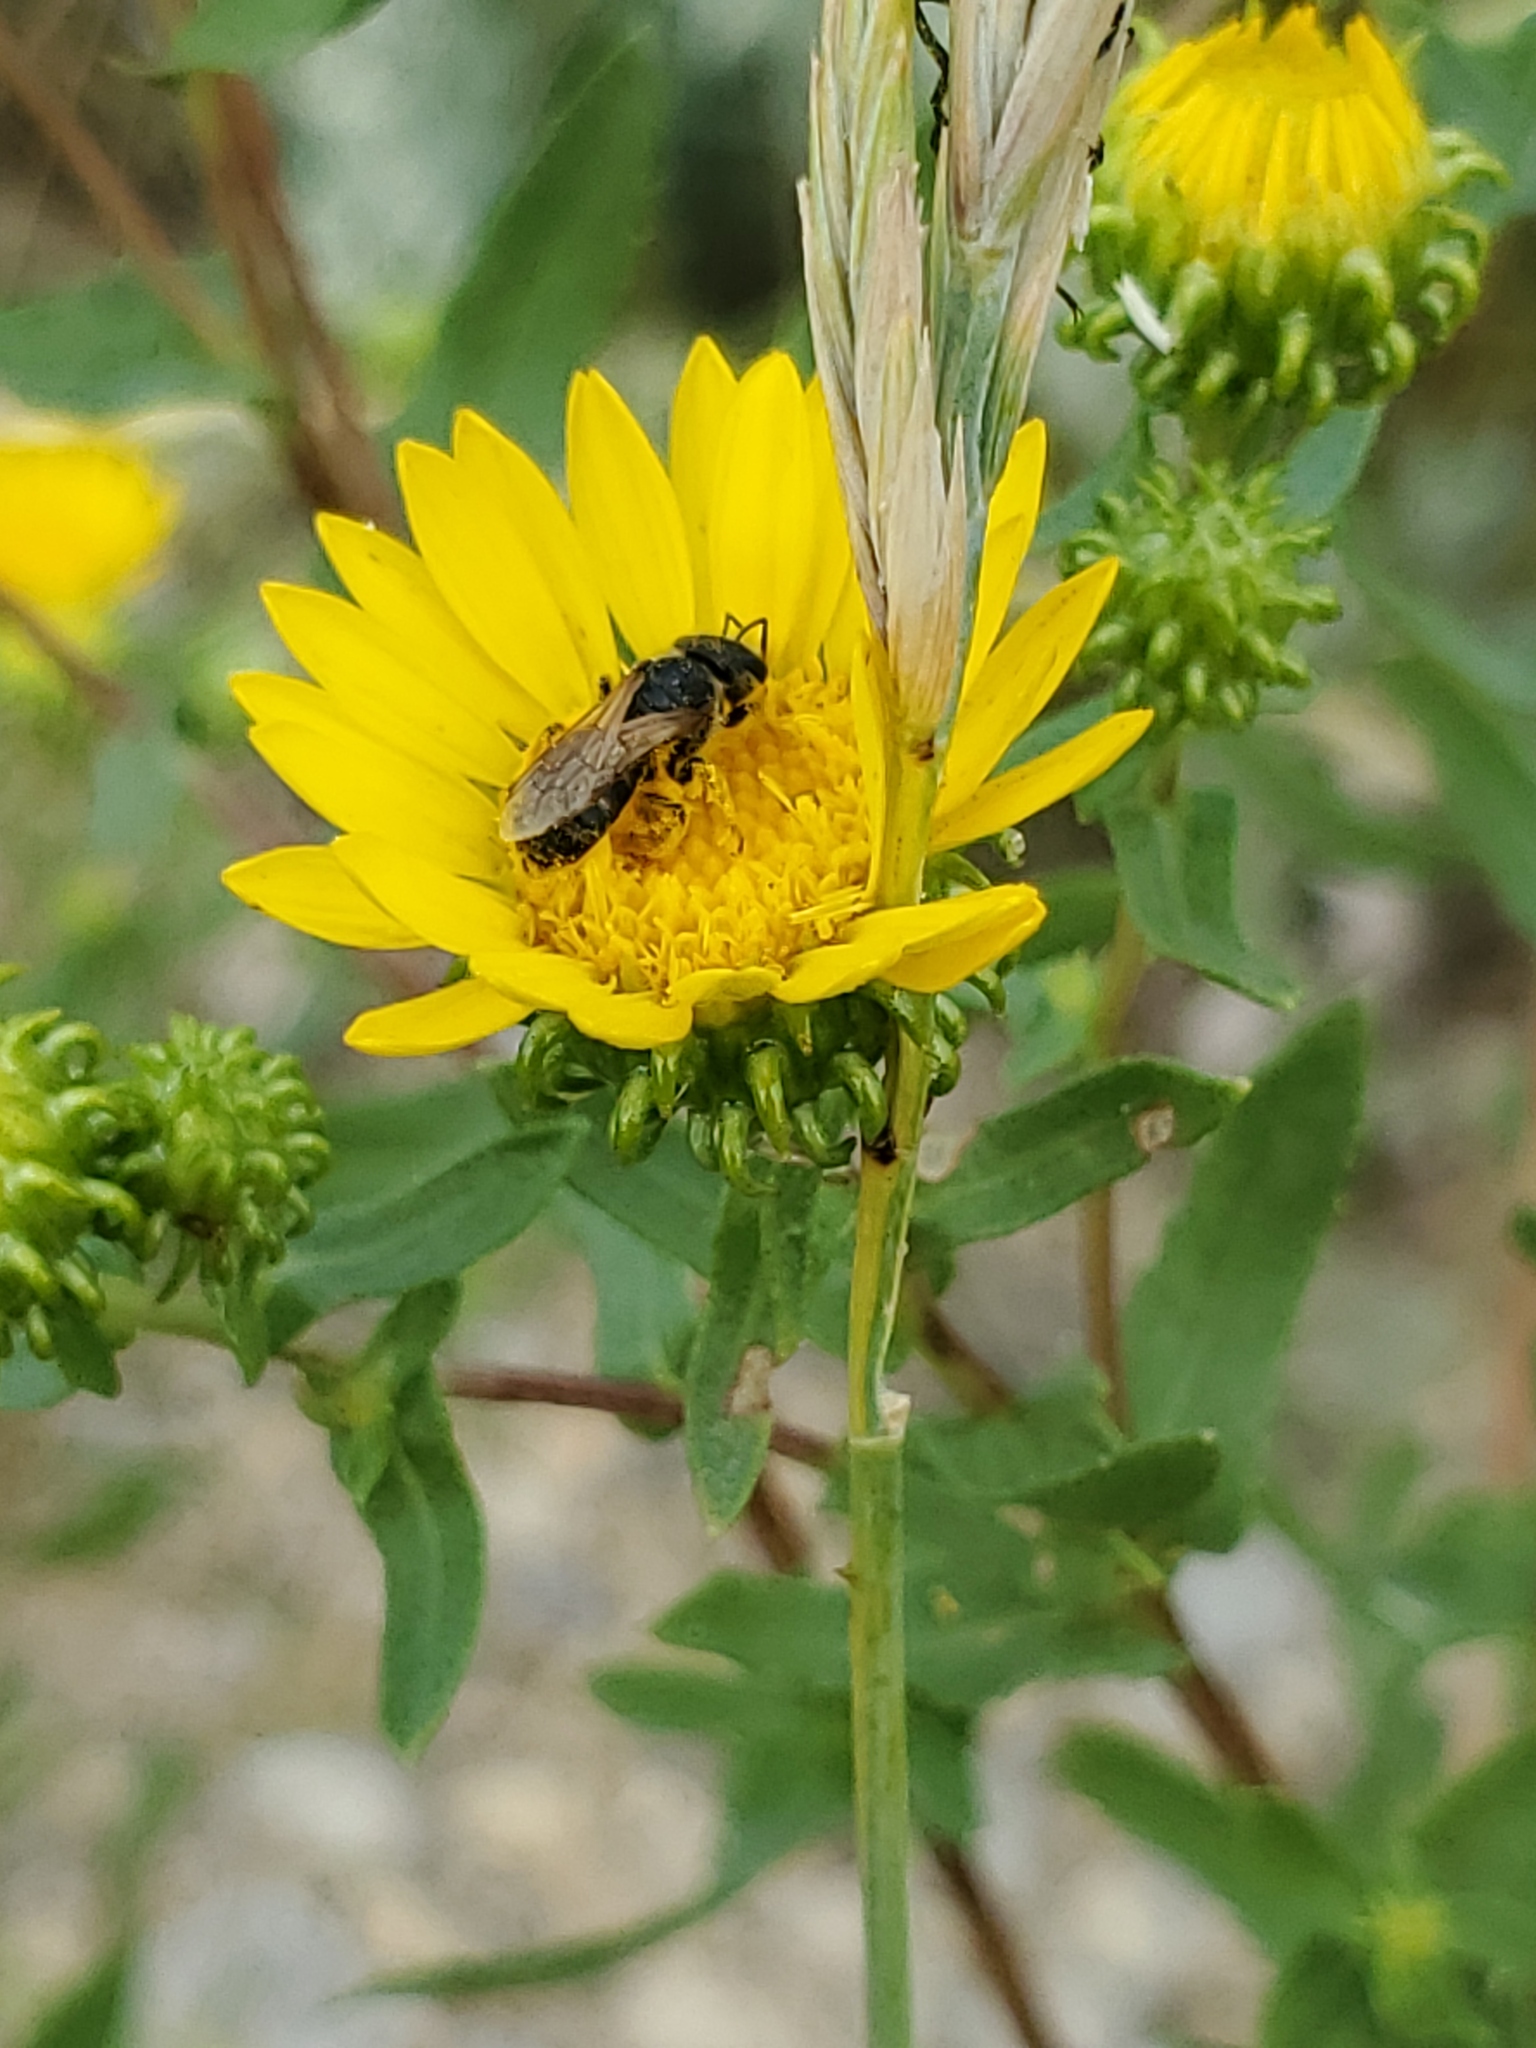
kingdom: Animalia
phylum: Arthropoda
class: Insecta
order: Hymenoptera
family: Halictidae
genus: Halictus
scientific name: Halictus ligatus
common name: Ligated furrow bee
